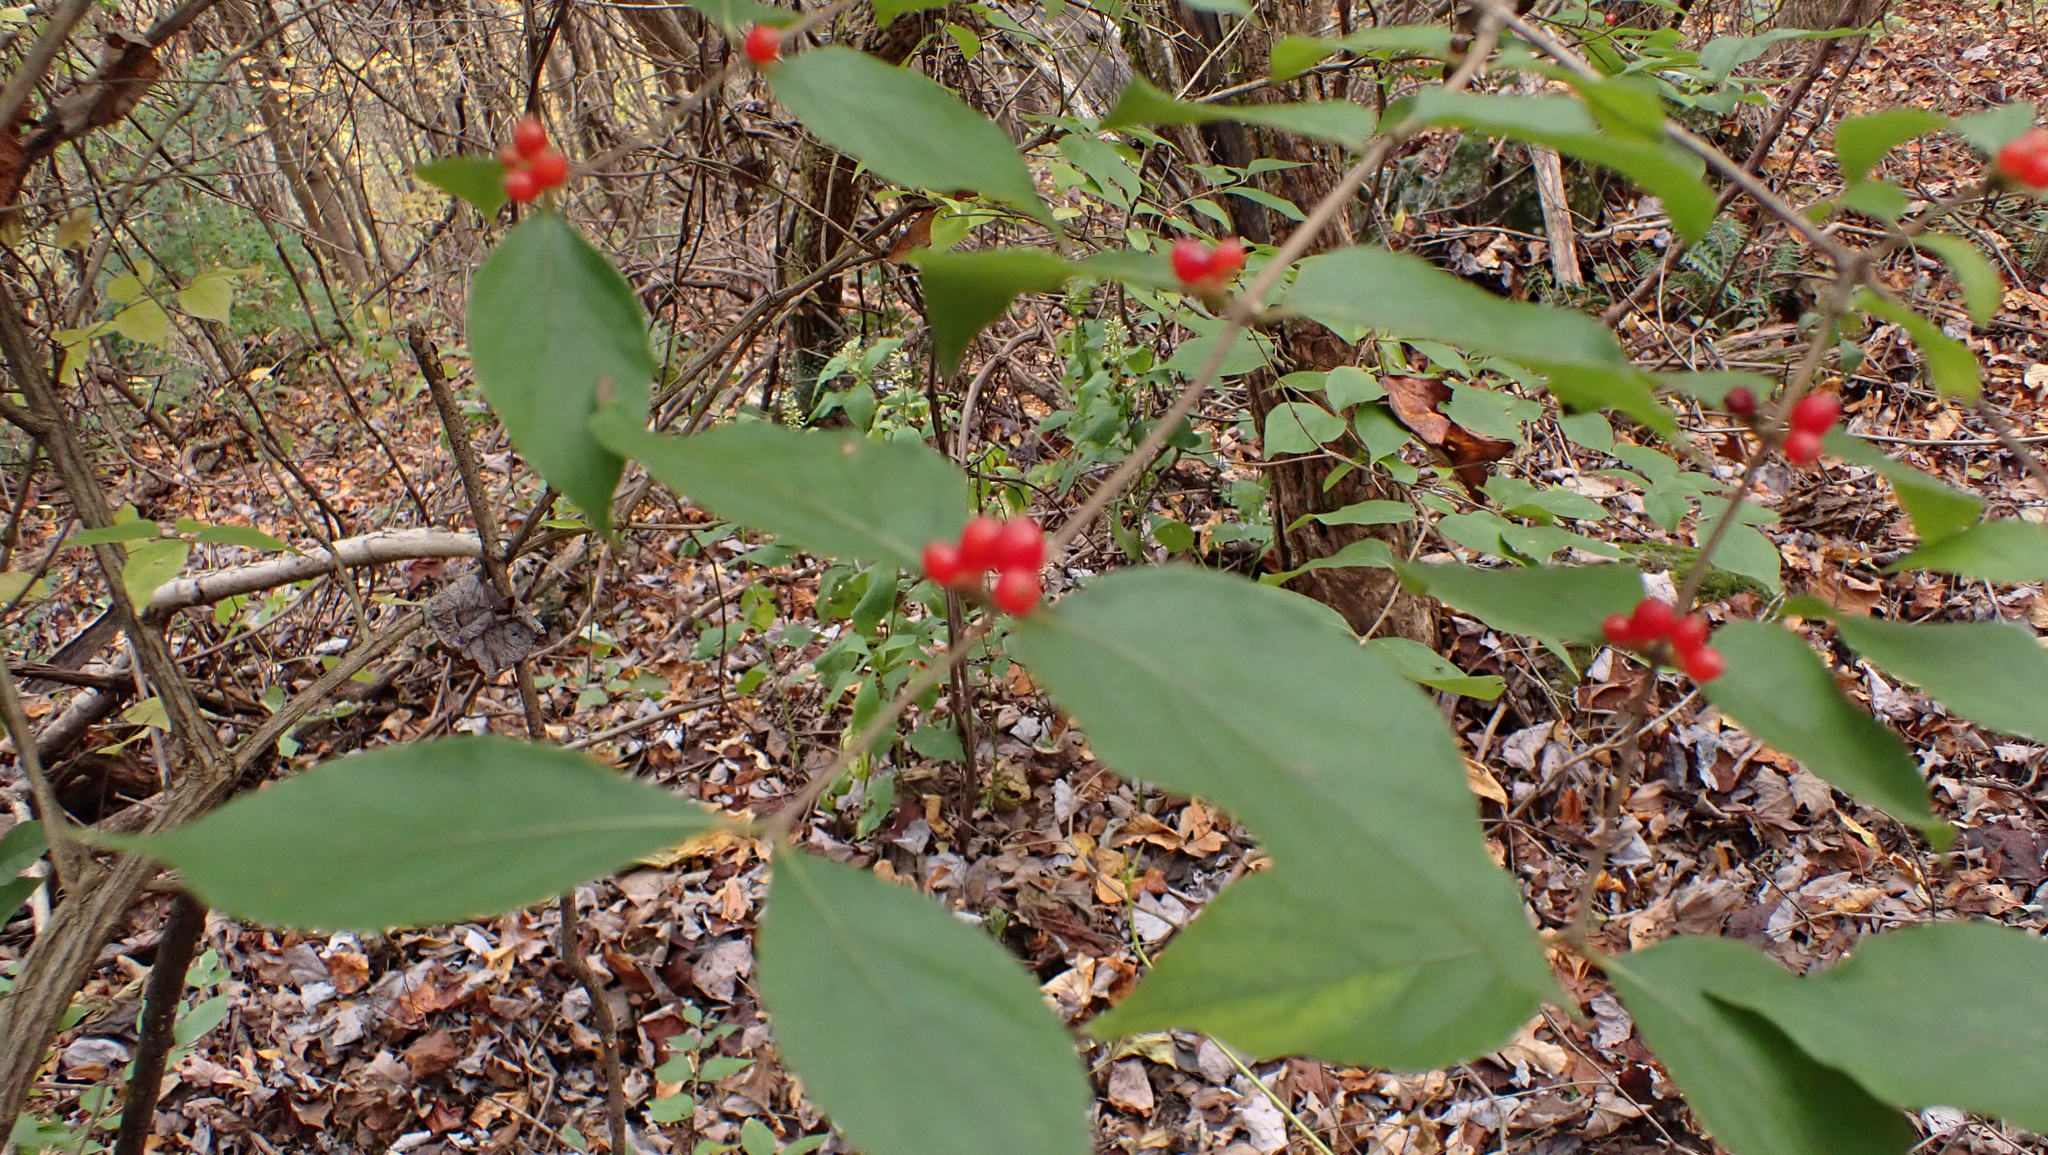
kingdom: Plantae
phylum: Tracheophyta
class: Magnoliopsida
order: Dipsacales
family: Caprifoliaceae
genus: Lonicera
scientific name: Lonicera maackii
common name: Amur honeysuckle
